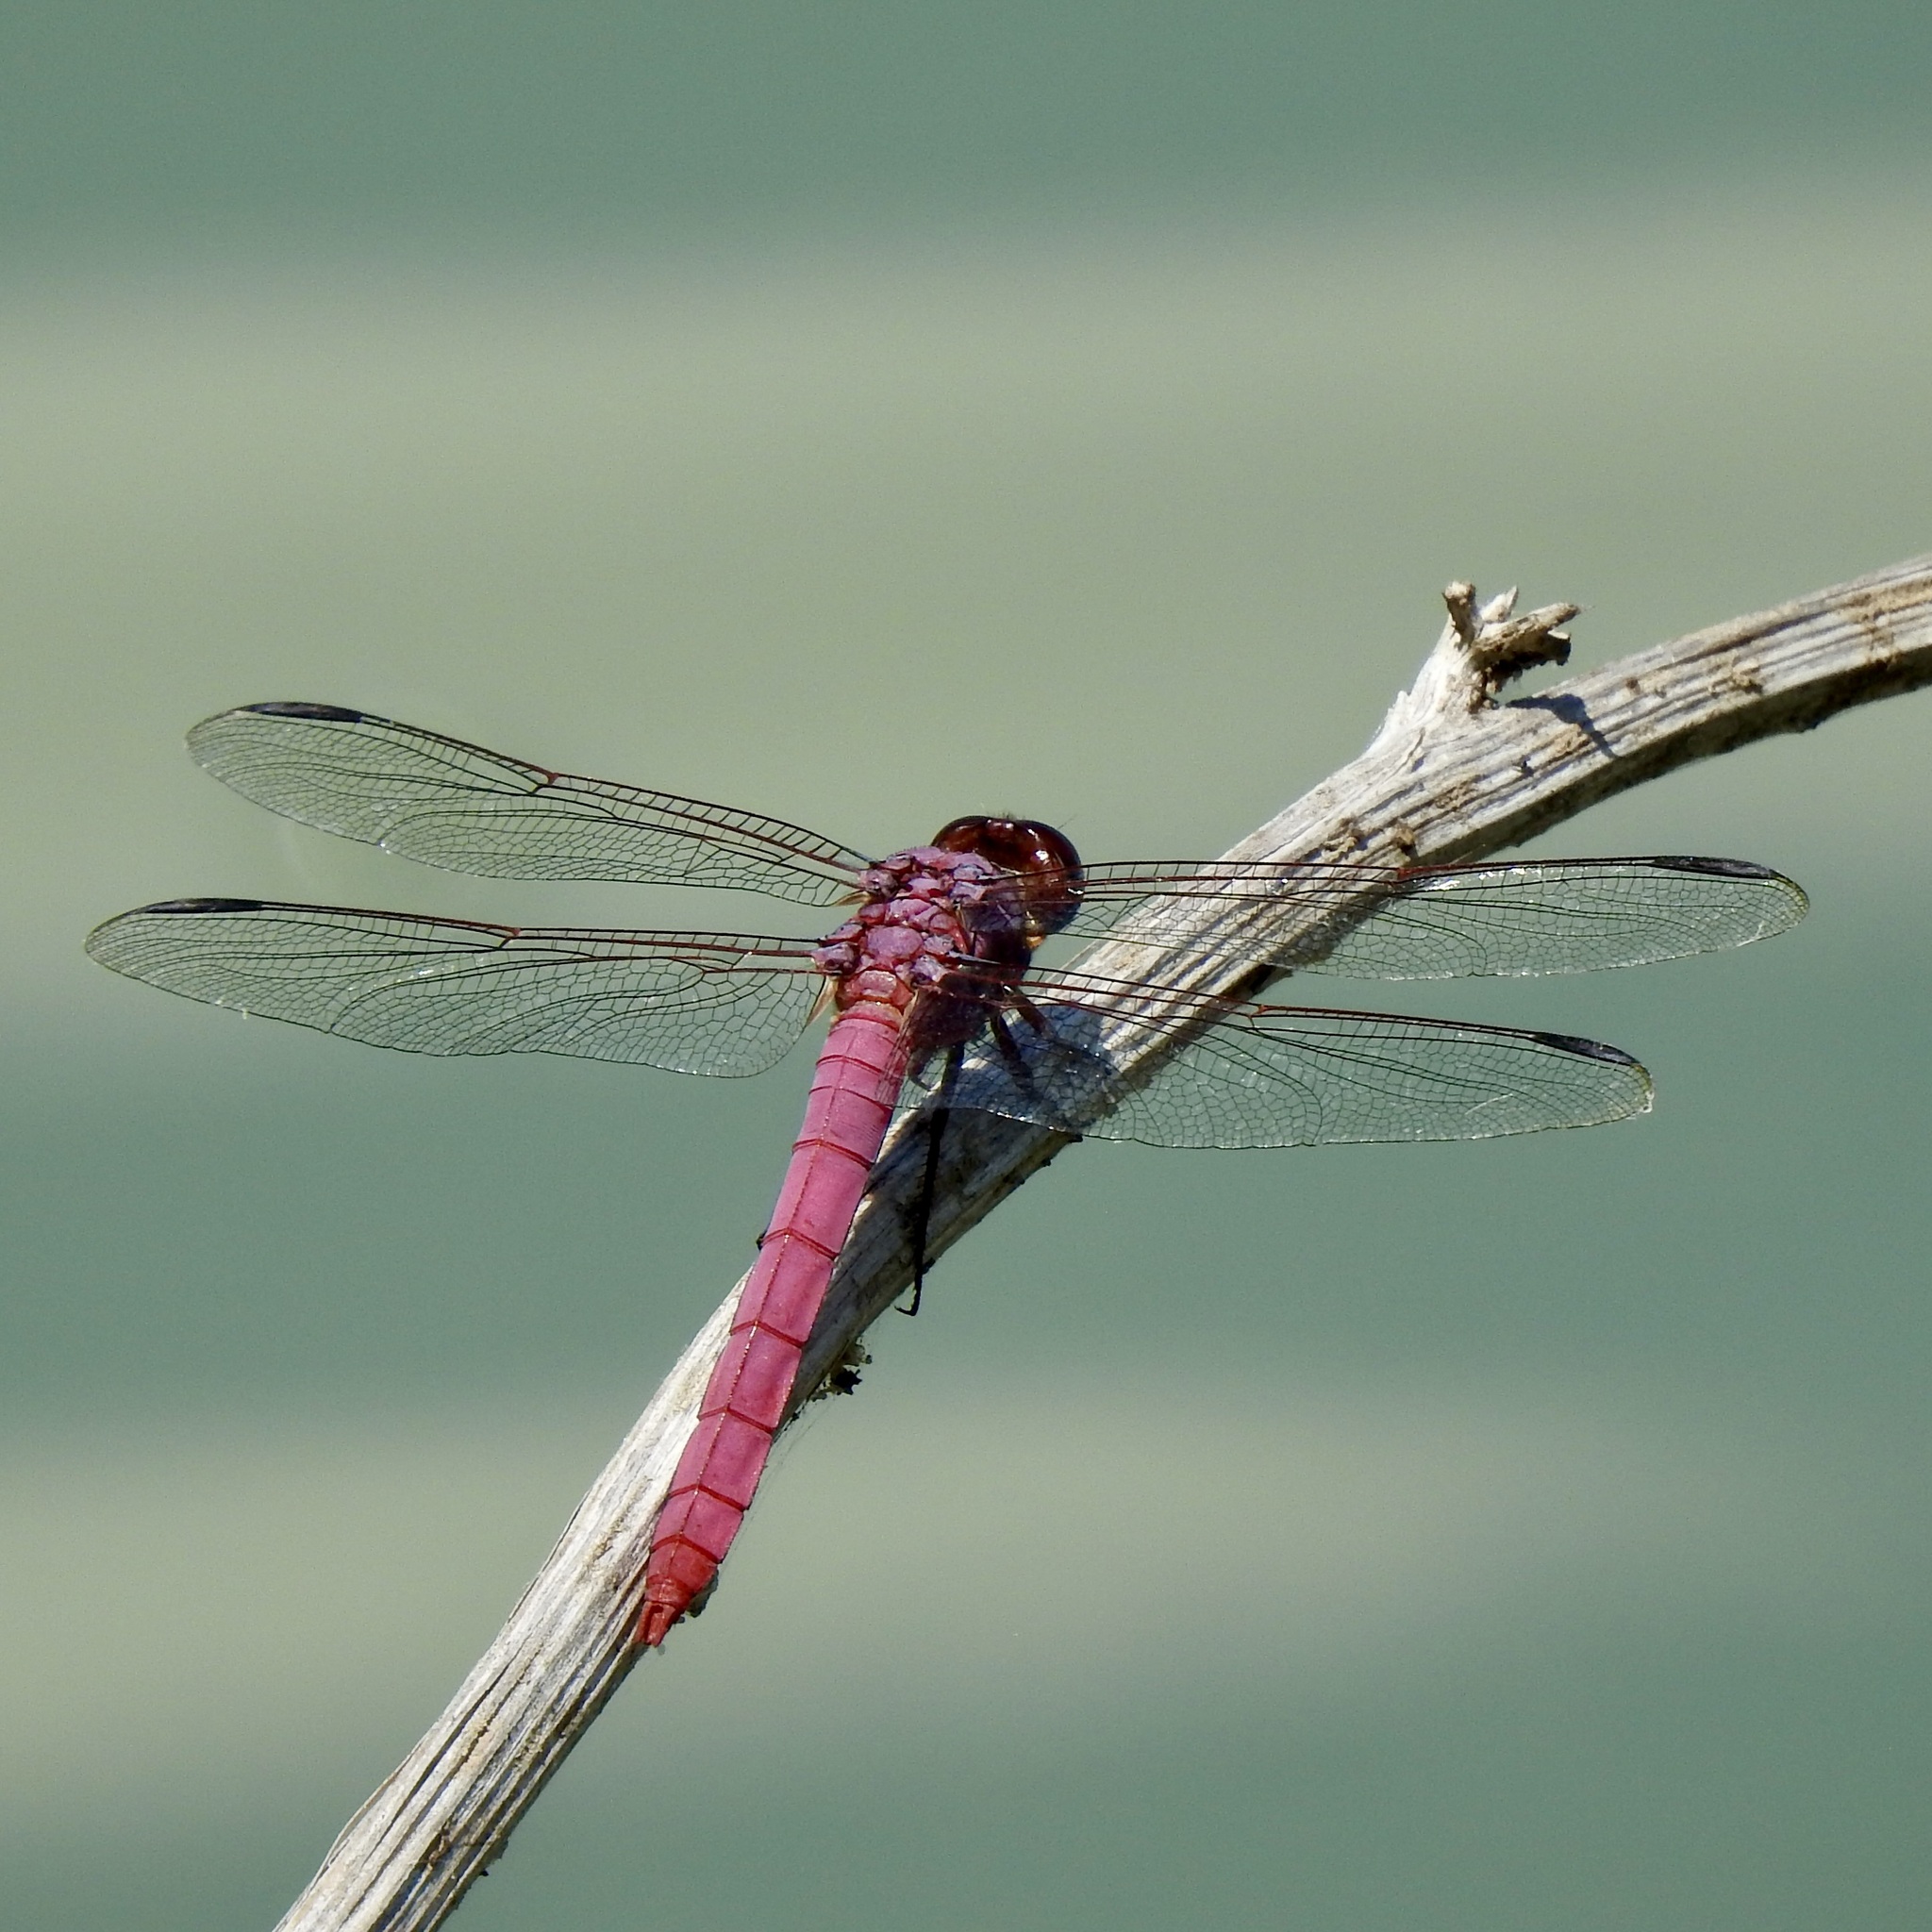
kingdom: Animalia
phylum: Arthropoda
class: Insecta
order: Odonata
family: Libellulidae
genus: Orthemis
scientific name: Orthemis ferruginea
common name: Roseate skimmer
